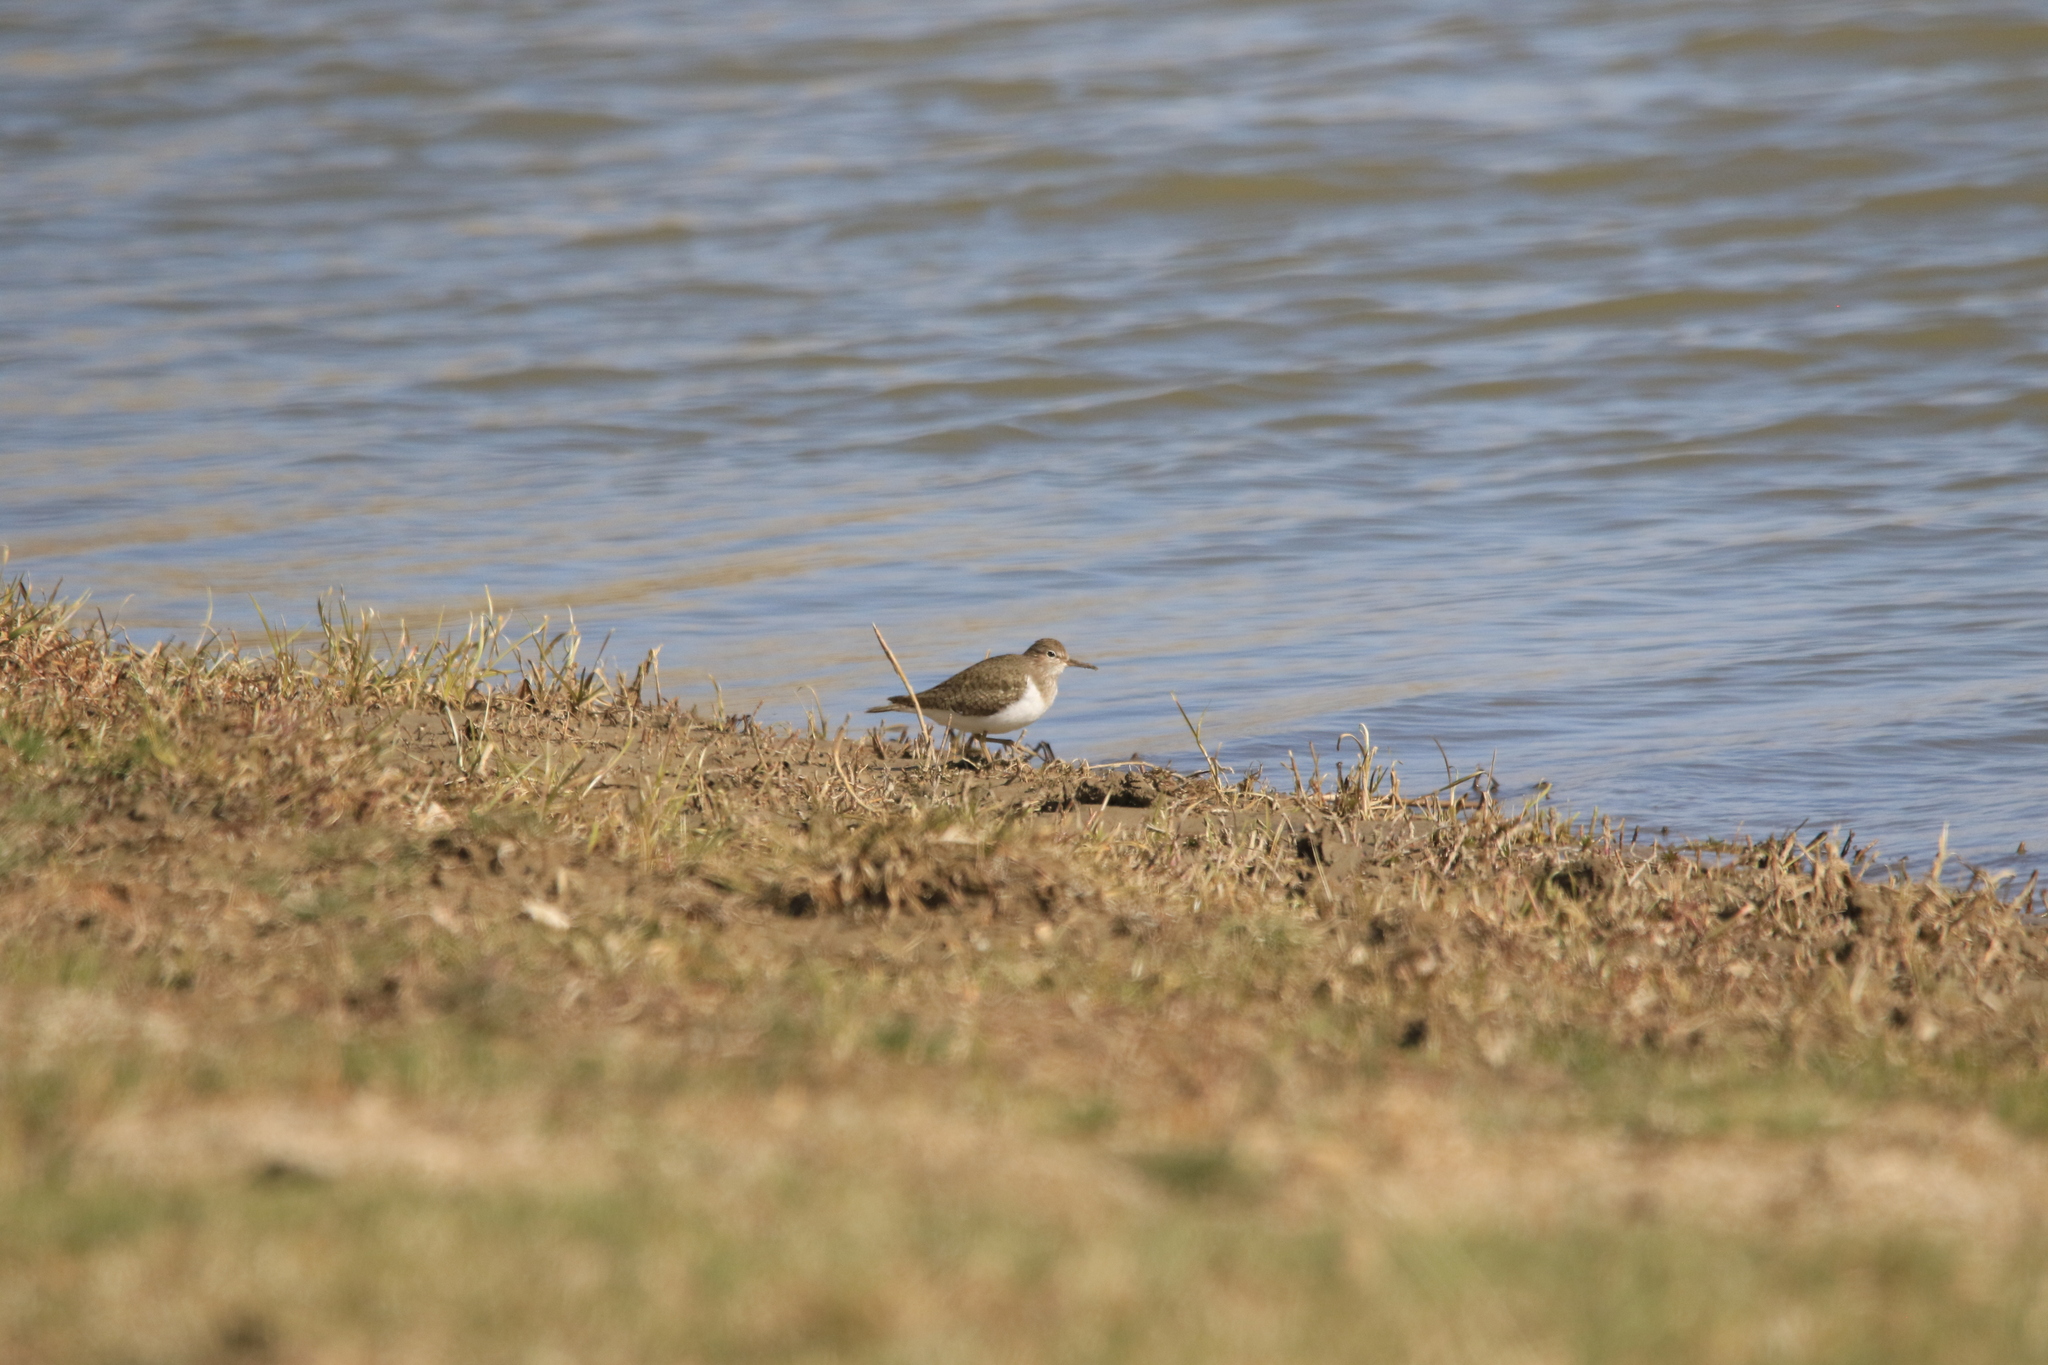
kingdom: Animalia
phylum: Chordata
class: Aves
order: Charadriiformes
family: Scolopacidae
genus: Actitis
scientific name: Actitis hypoleucos
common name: Common sandpiper
